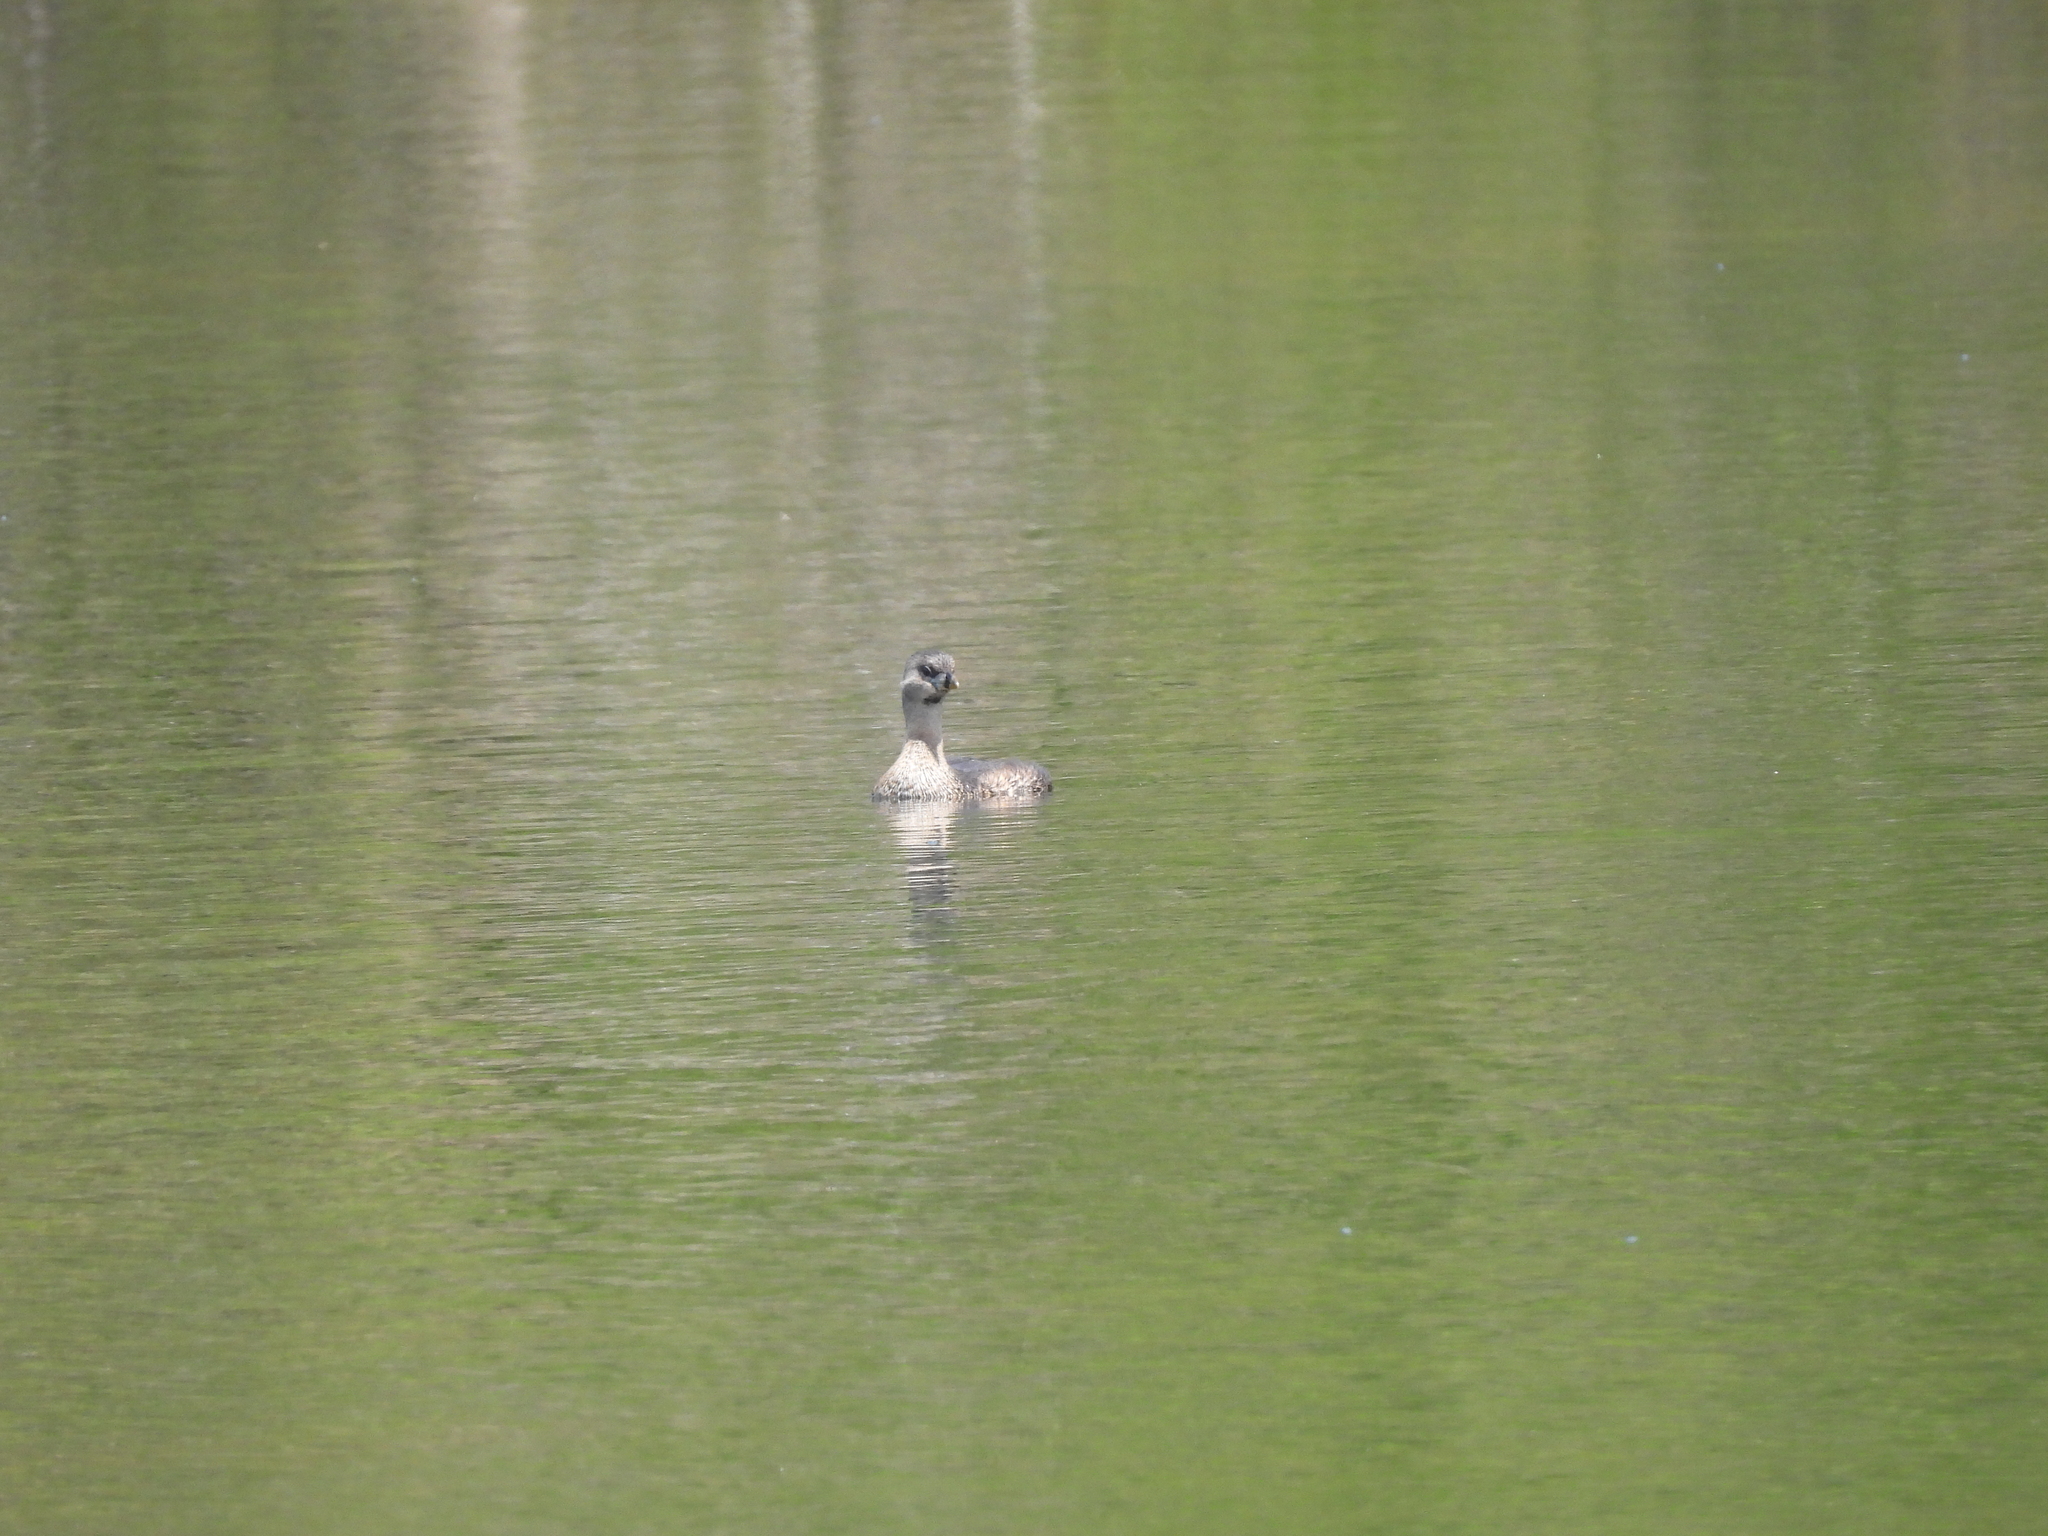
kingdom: Animalia
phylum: Chordata
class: Aves
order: Podicipediformes
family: Podicipedidae
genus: Podilymbus
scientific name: Podilymbus podiceps
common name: Pied-billed grebe
